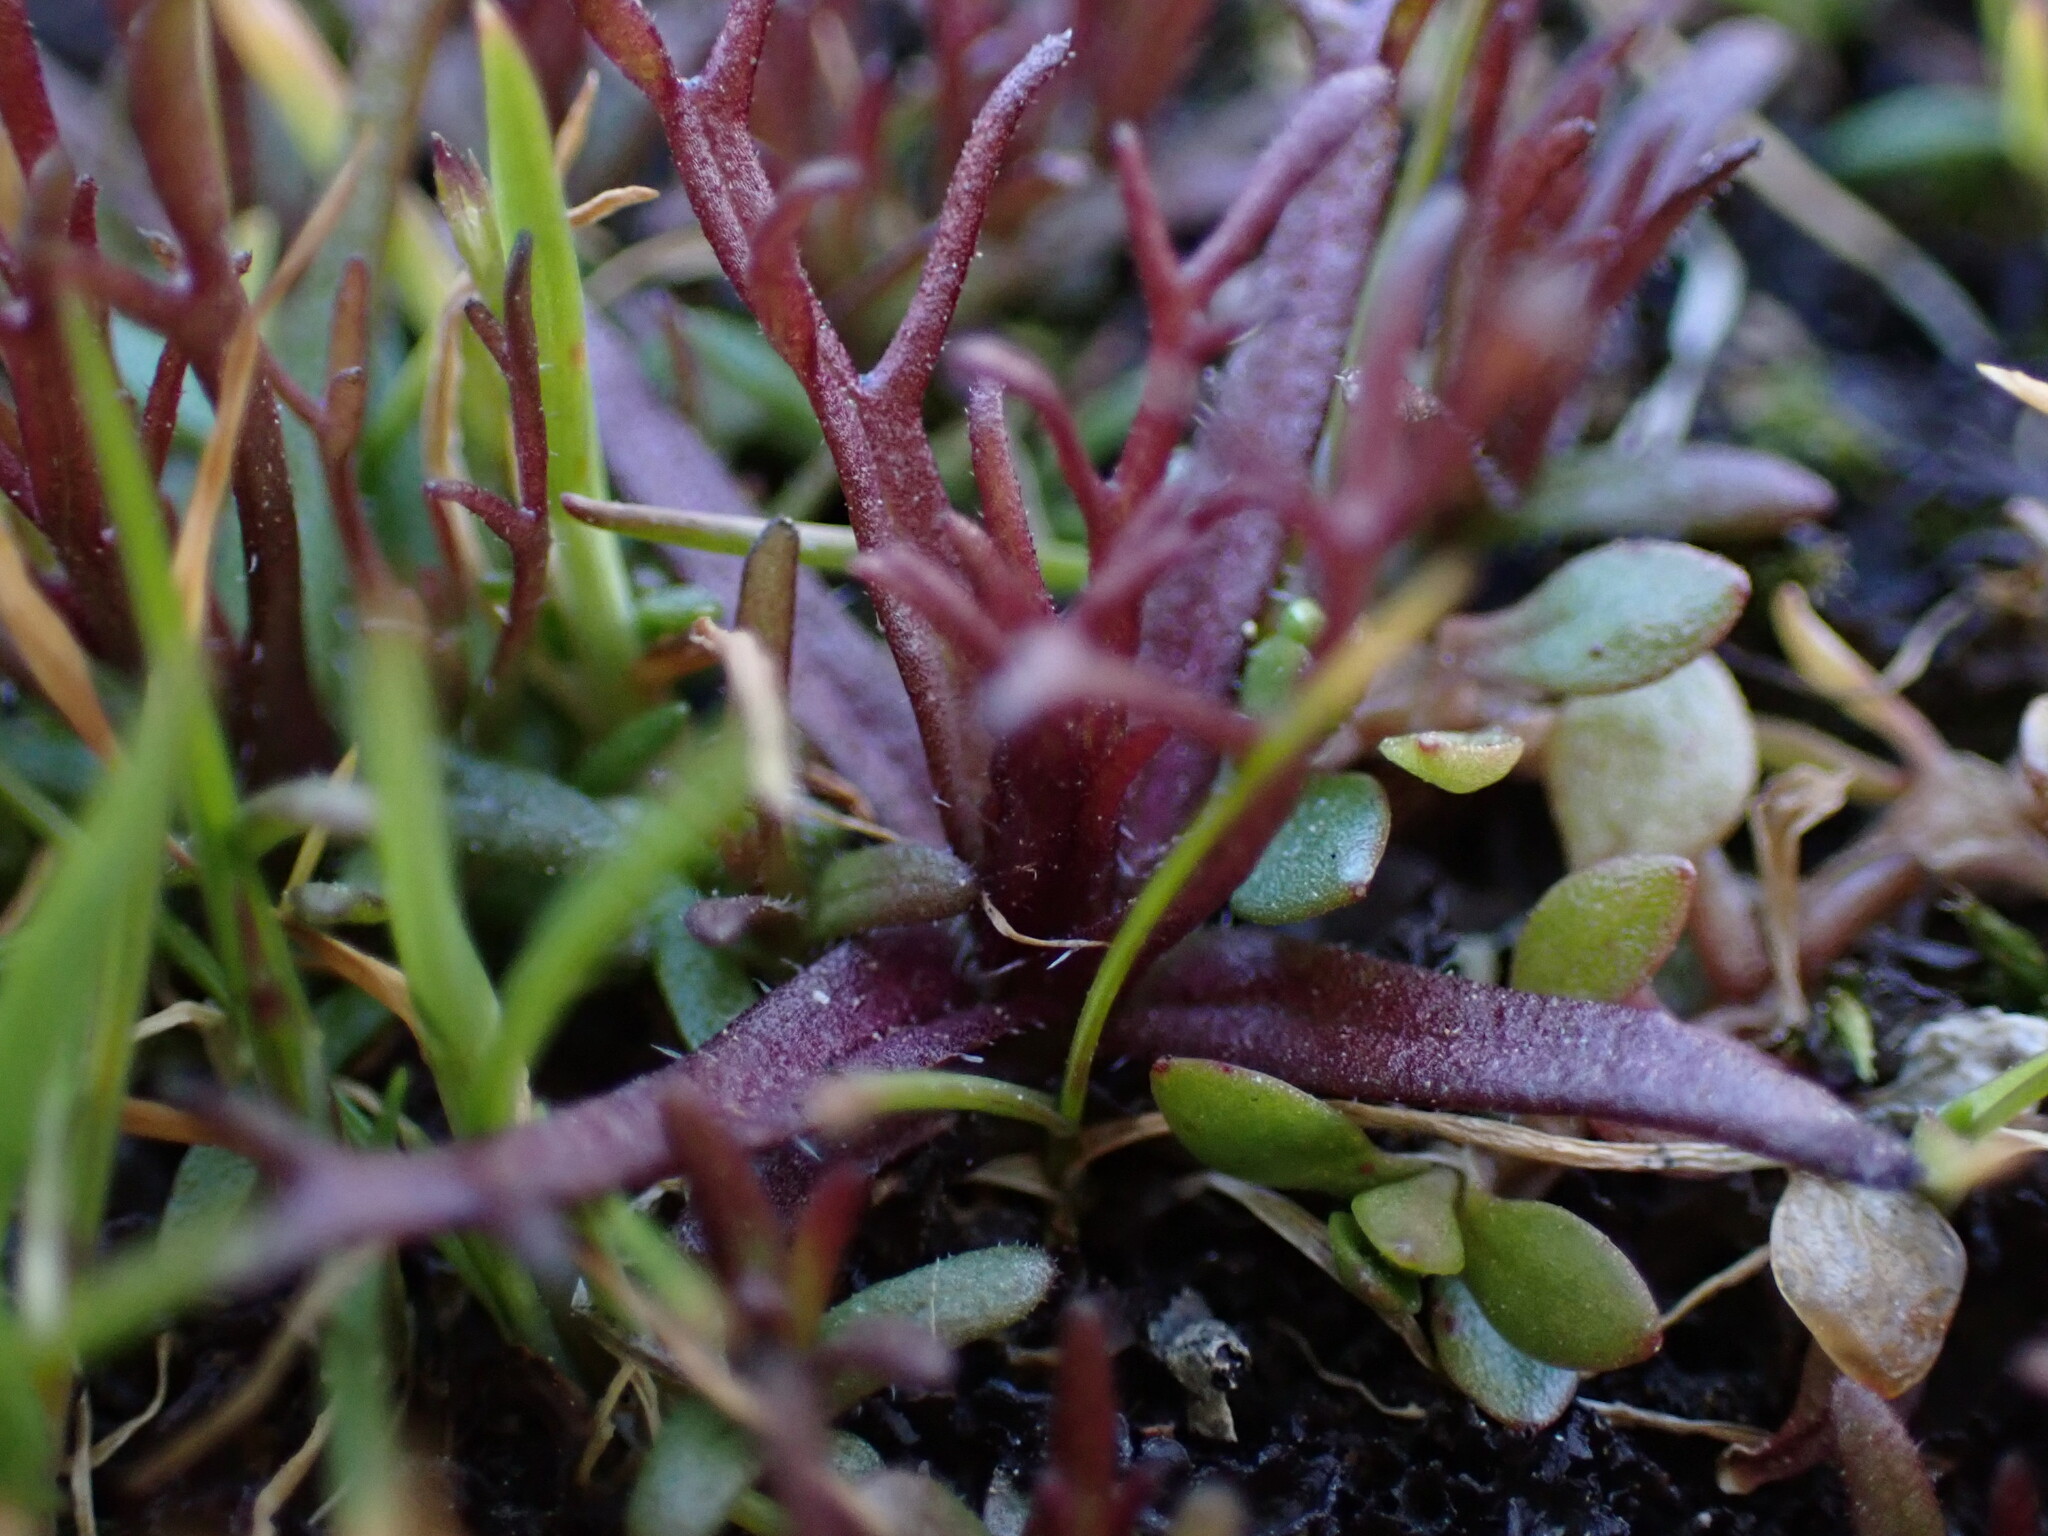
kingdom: Plantae
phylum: Tracheophyta
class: Magnoliopsida
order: Lamiales
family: Orobanchaceae
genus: Triphysaria
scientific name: Triphysaria pusilla
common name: Dwarf false owl-clover
